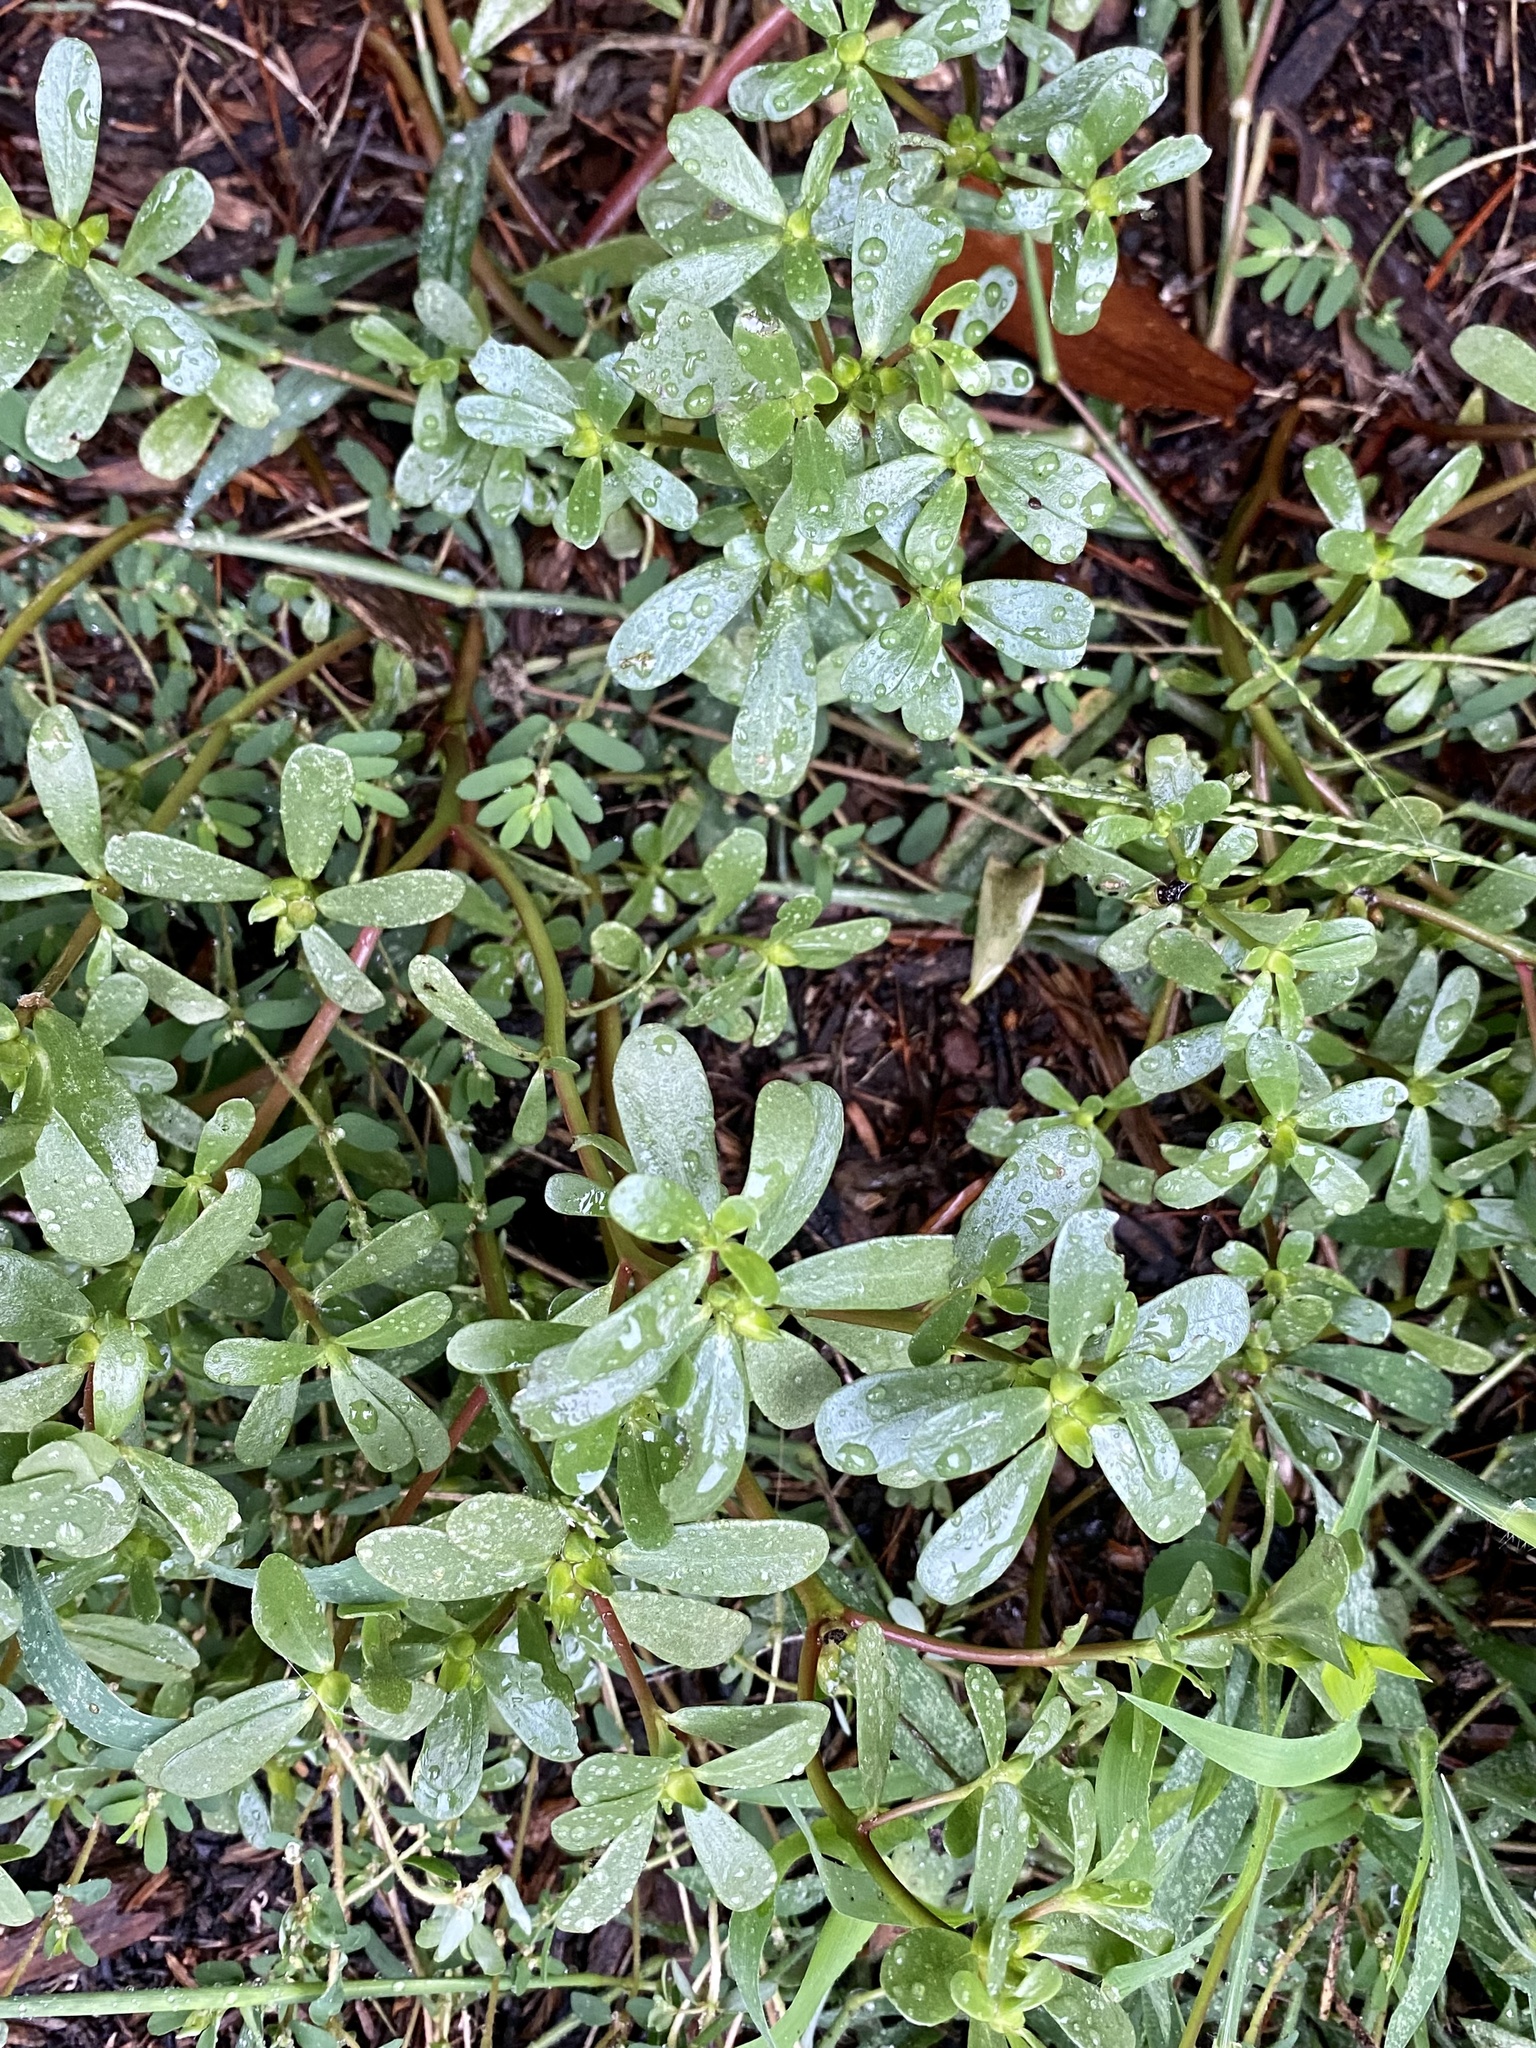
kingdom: Plantae
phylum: Tracheophyta
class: Magnoliopsida
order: Caryophyllales
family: Portulacaceae
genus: Portulaca
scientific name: Portulaca oleracea
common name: Common purslane
